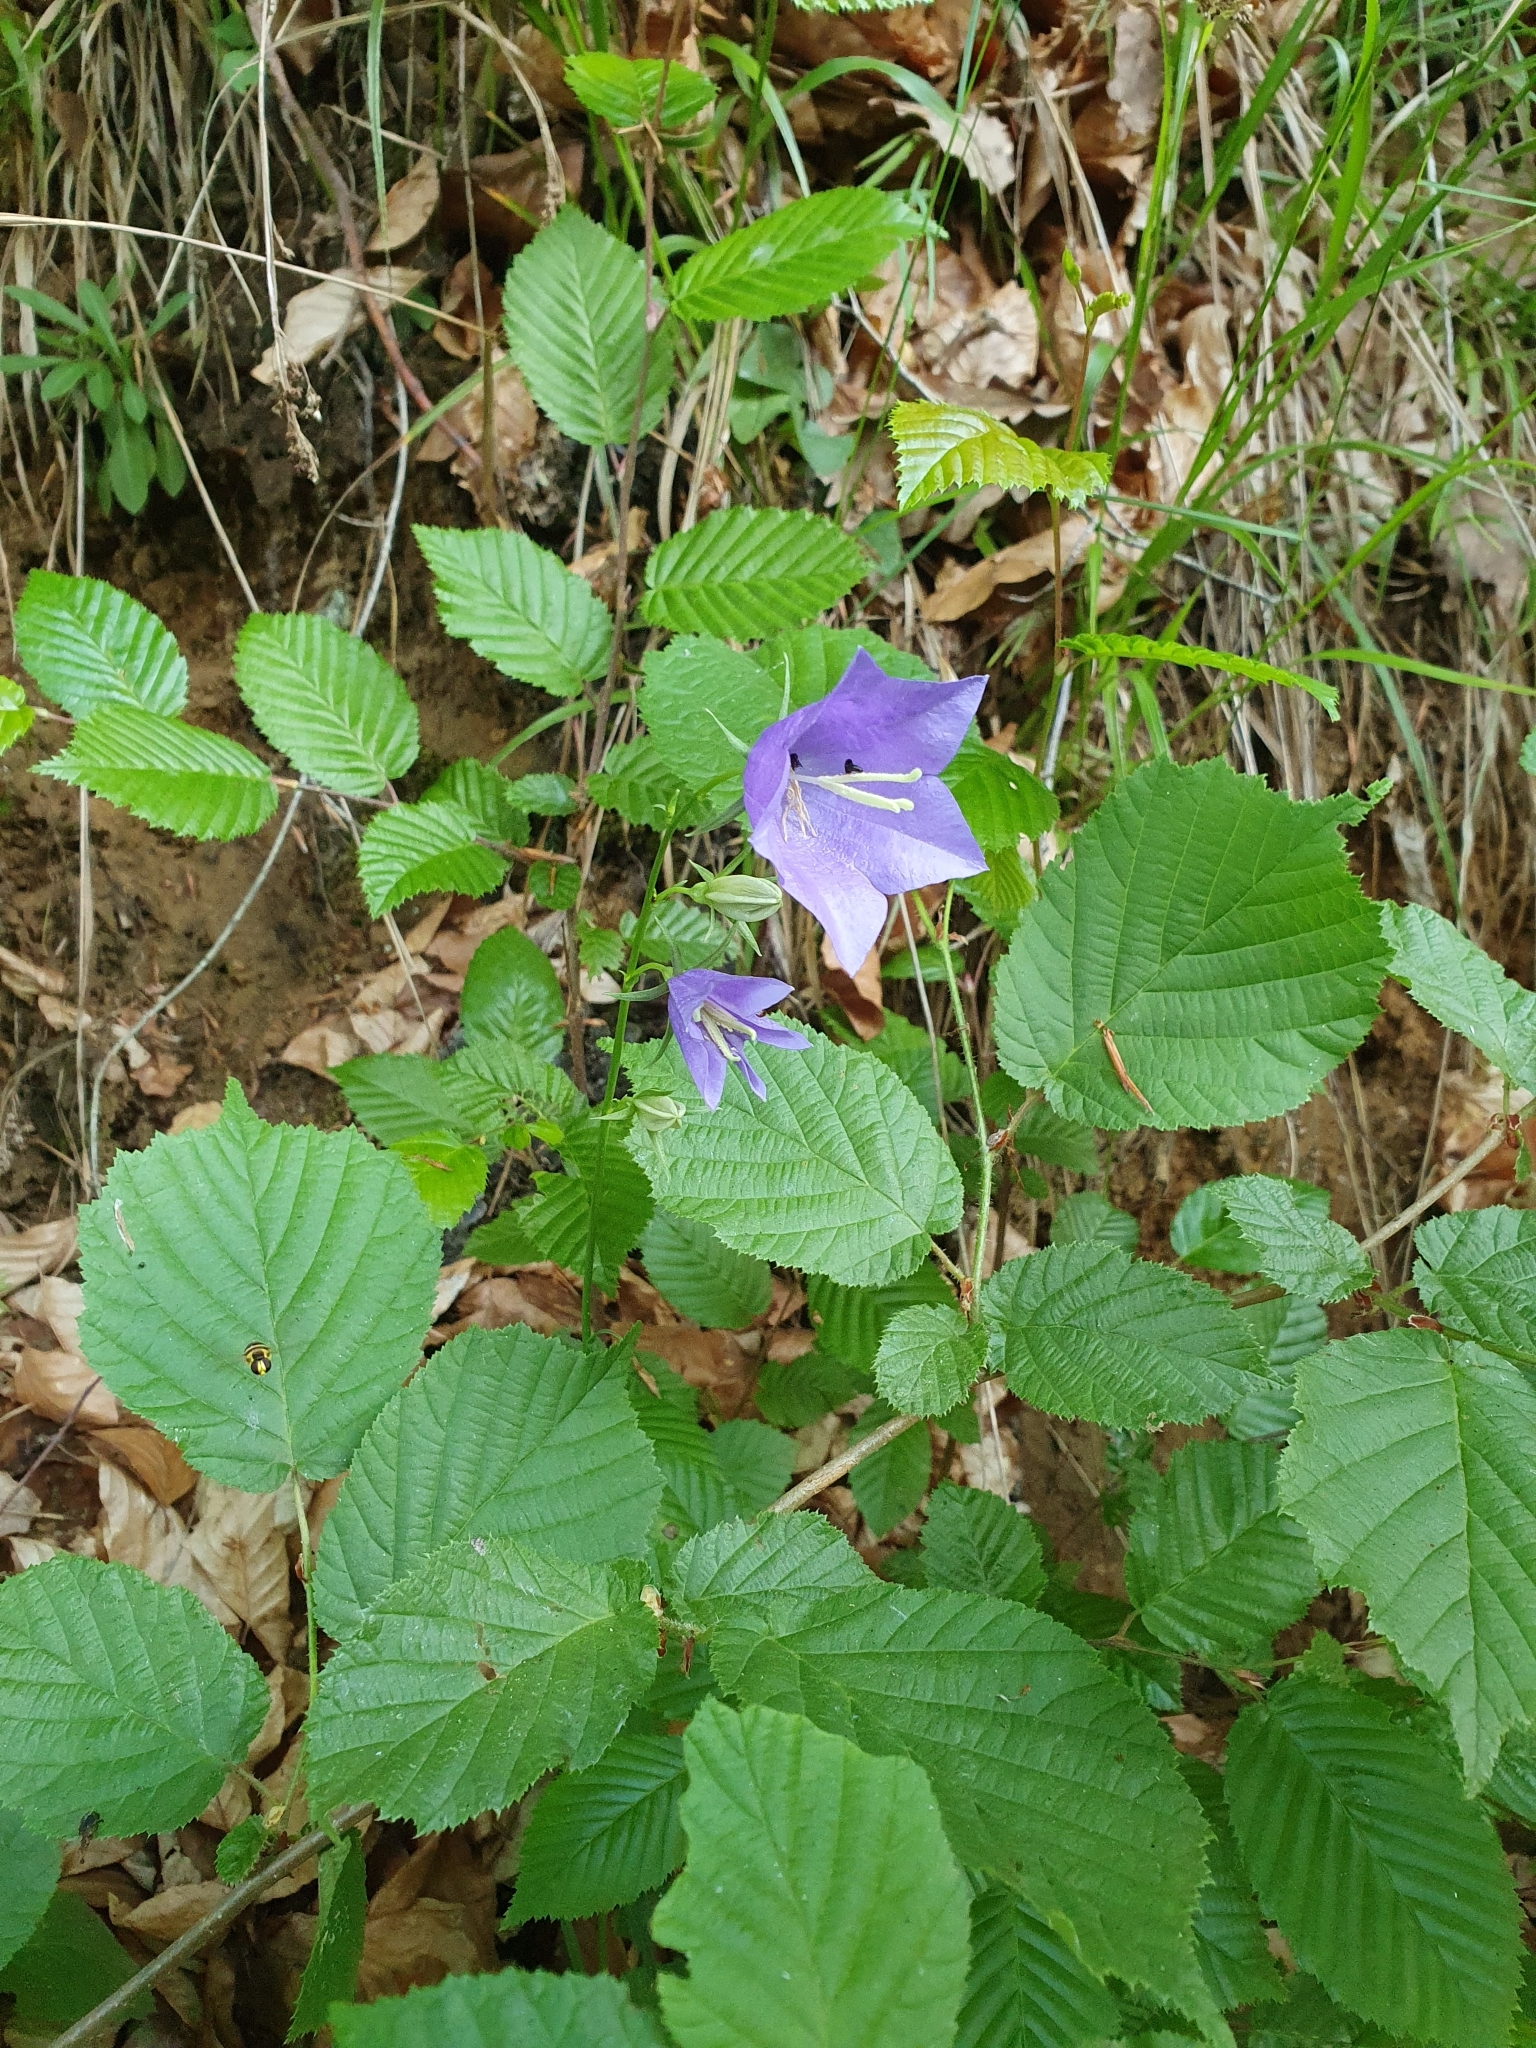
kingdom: Plantae
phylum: Tracheophyta
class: Magnoliopsida
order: Asterales
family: Campanulaceae
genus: Campanula
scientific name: Campanula persicifolia
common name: Peach-leaved bellflower
